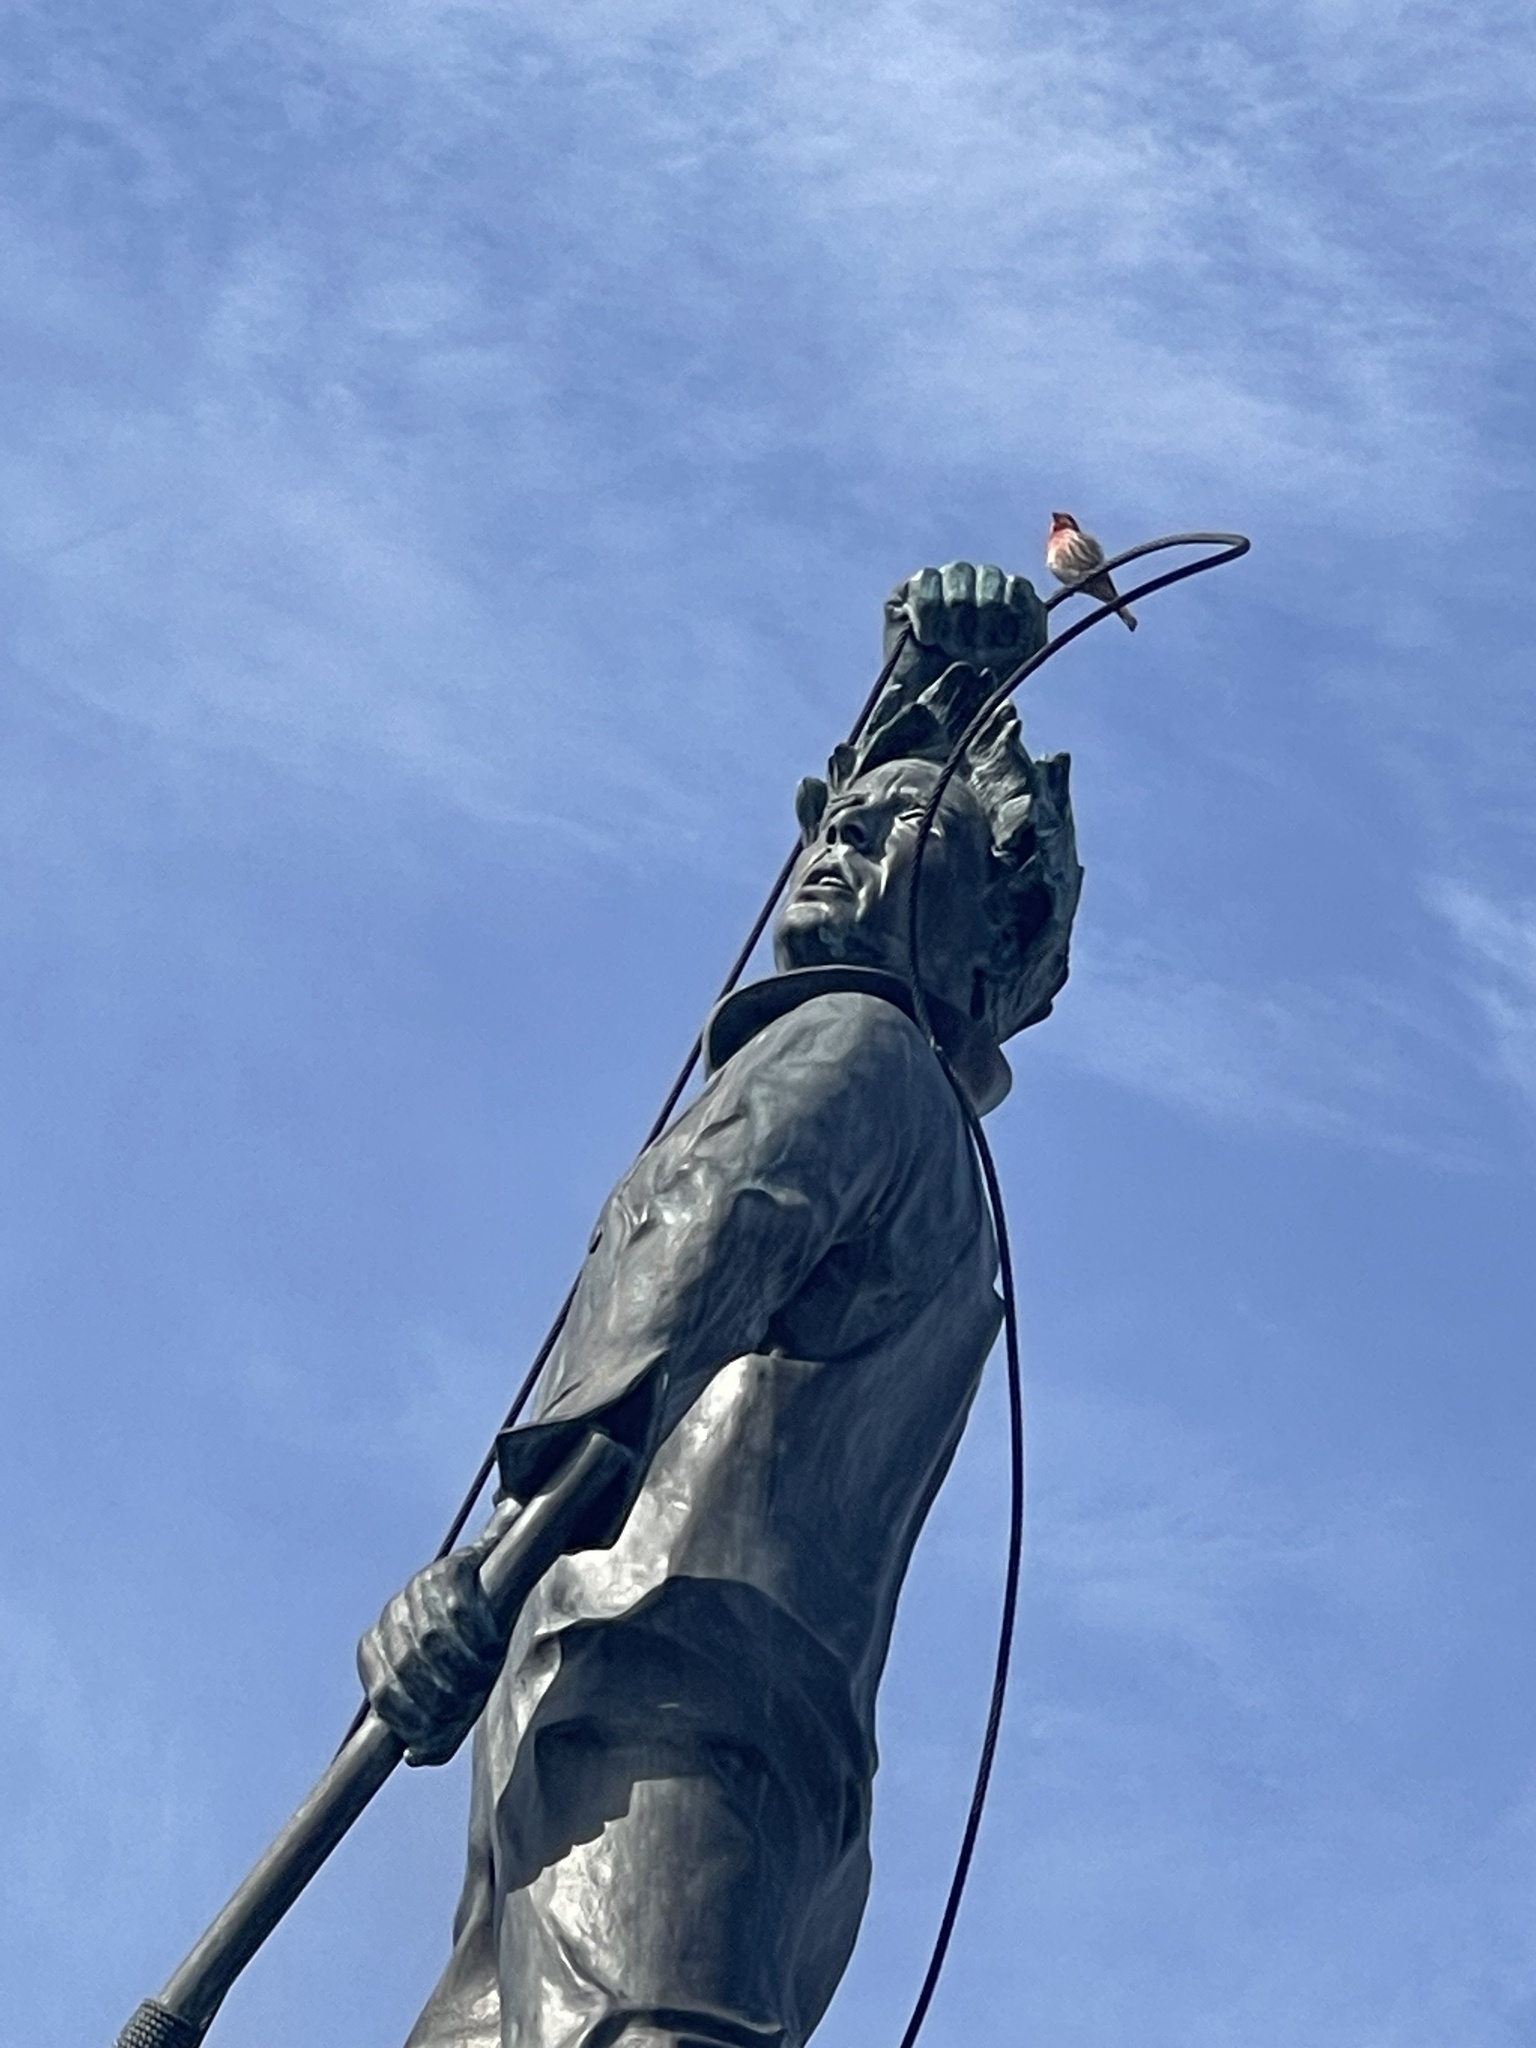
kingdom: Animalia
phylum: Chordata
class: Aves
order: Passeriformes
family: Fringillidae
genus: Haemorhous
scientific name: Haemorhous mexicanus
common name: House finch
